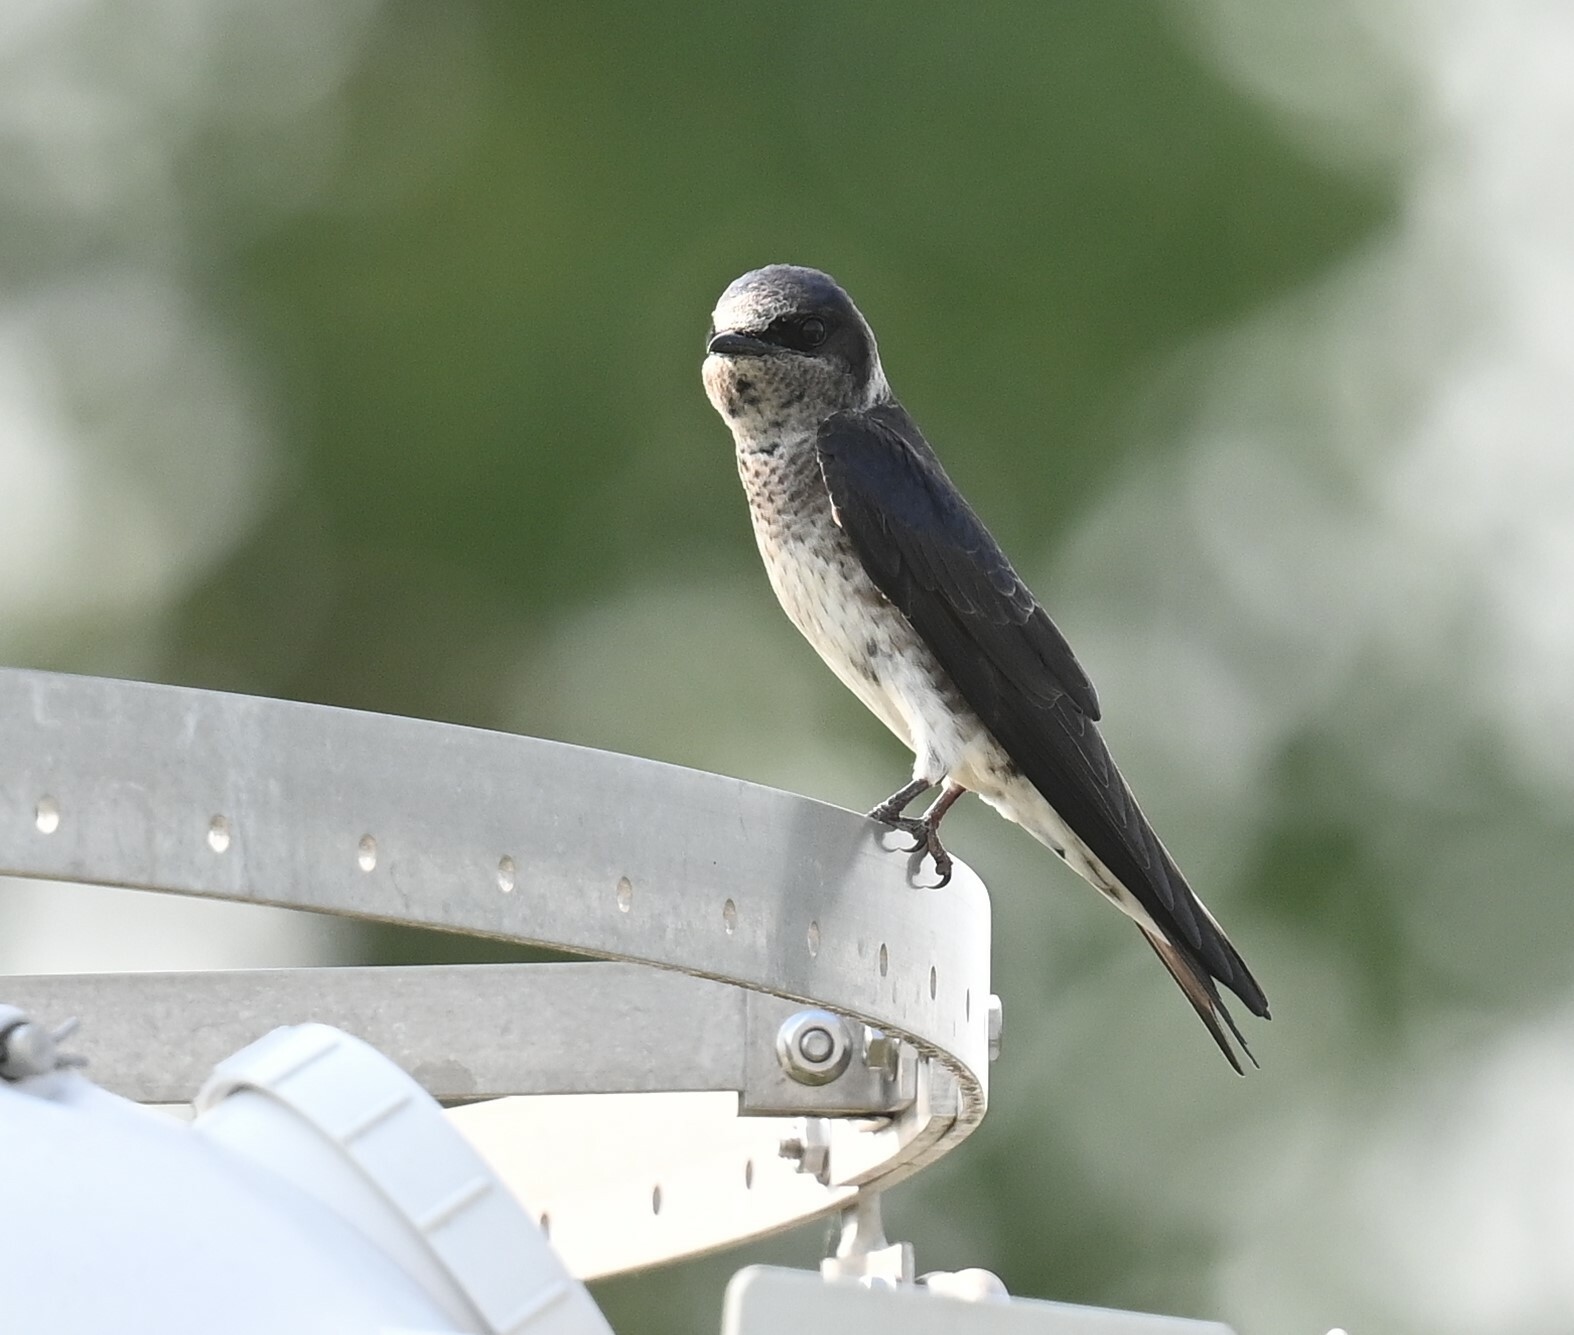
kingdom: Animalia
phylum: Chordata
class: Aves
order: Passeriformes
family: Hirundinidae
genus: Progne
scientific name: Progne subis
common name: Purple martin
